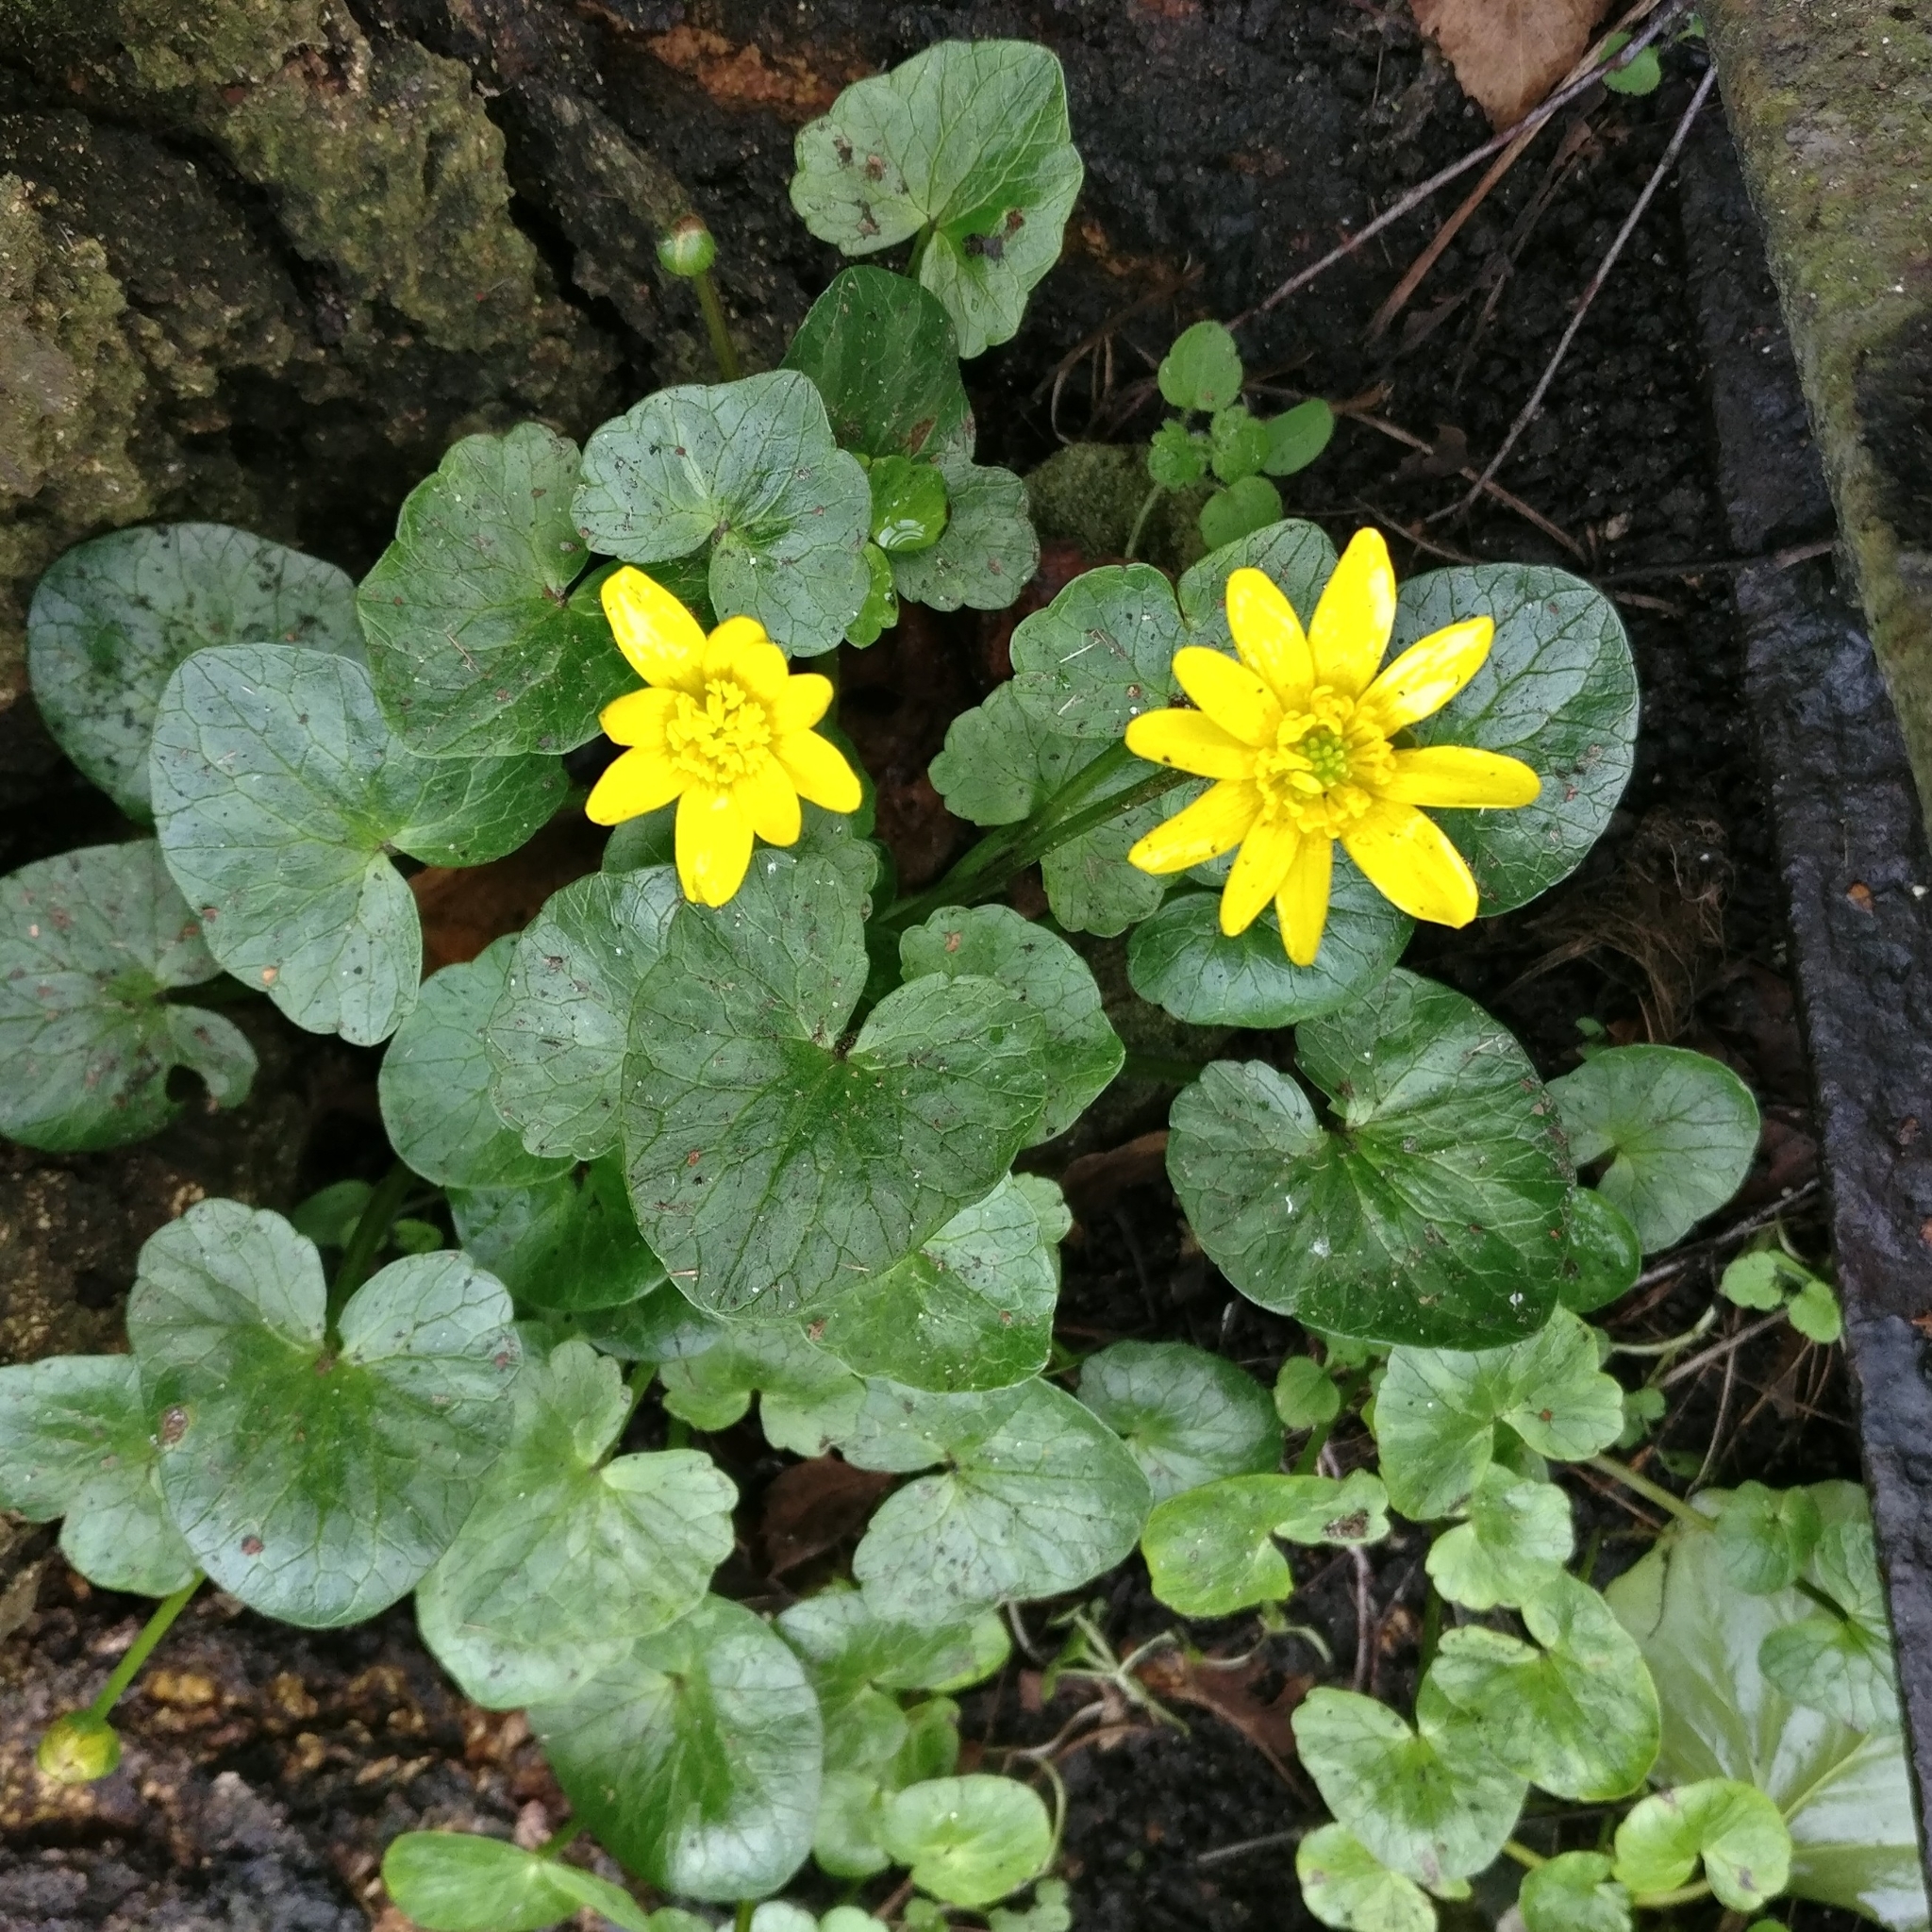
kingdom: Plantae
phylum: Tracheophyta
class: Magnoliopsida
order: Ranunculales
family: Ranunculaceae
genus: Ficaria
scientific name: Ficaria verna
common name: Lesser celandine
